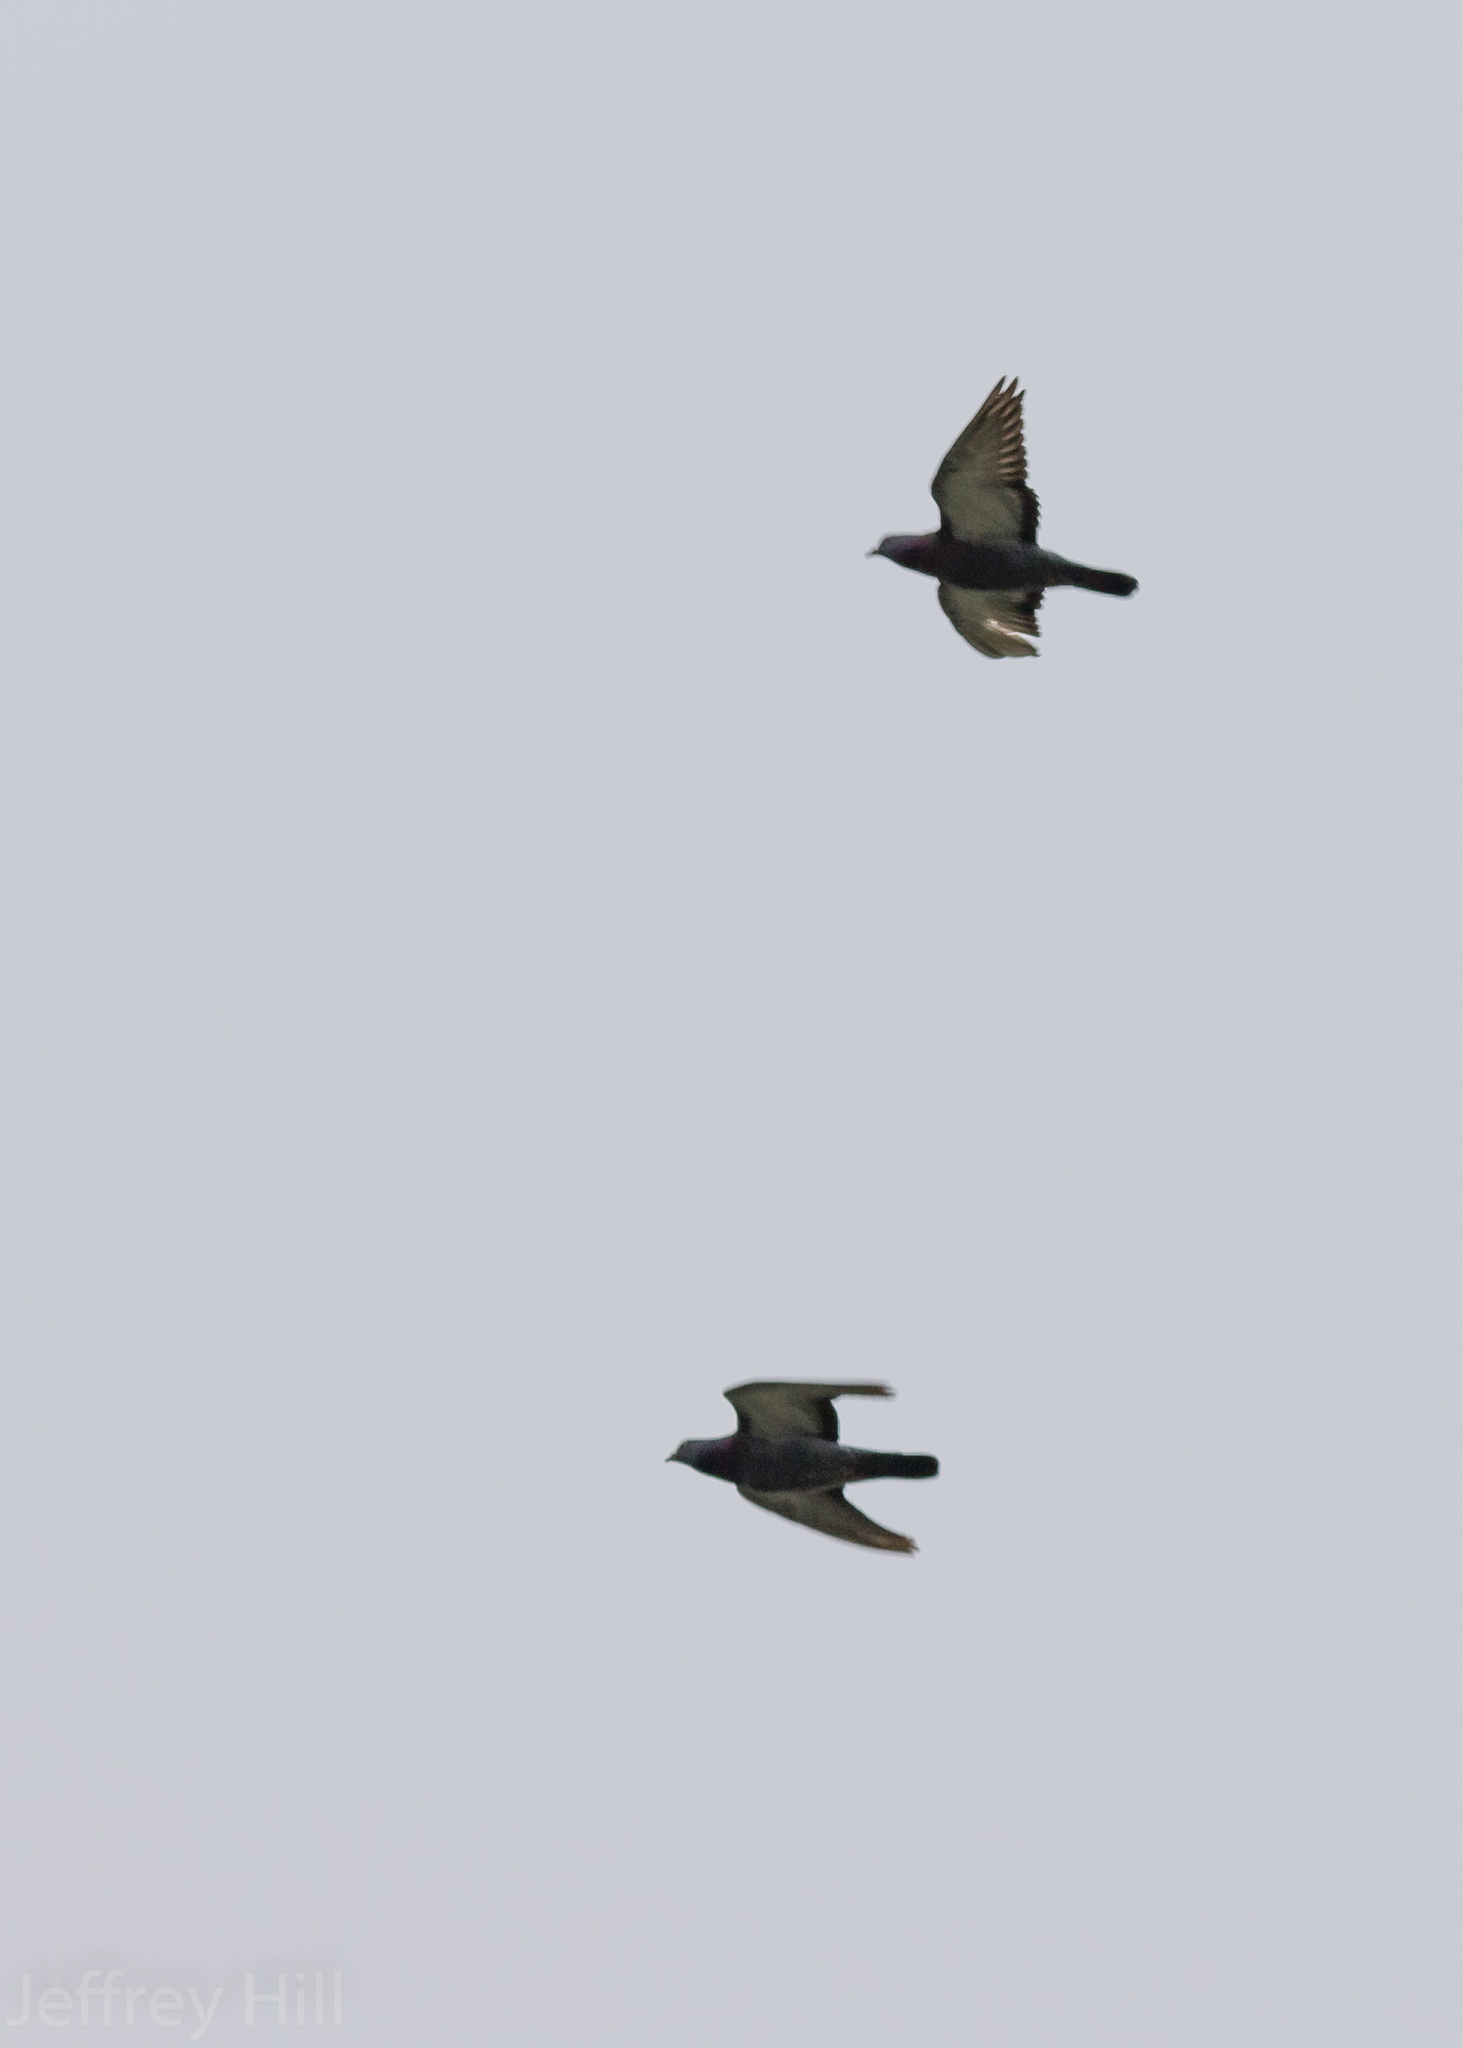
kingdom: Animalia
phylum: Chordata
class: Aves
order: Columbiformes
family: Columbidae
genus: Columba
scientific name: Columba livia
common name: Rock pigeon
